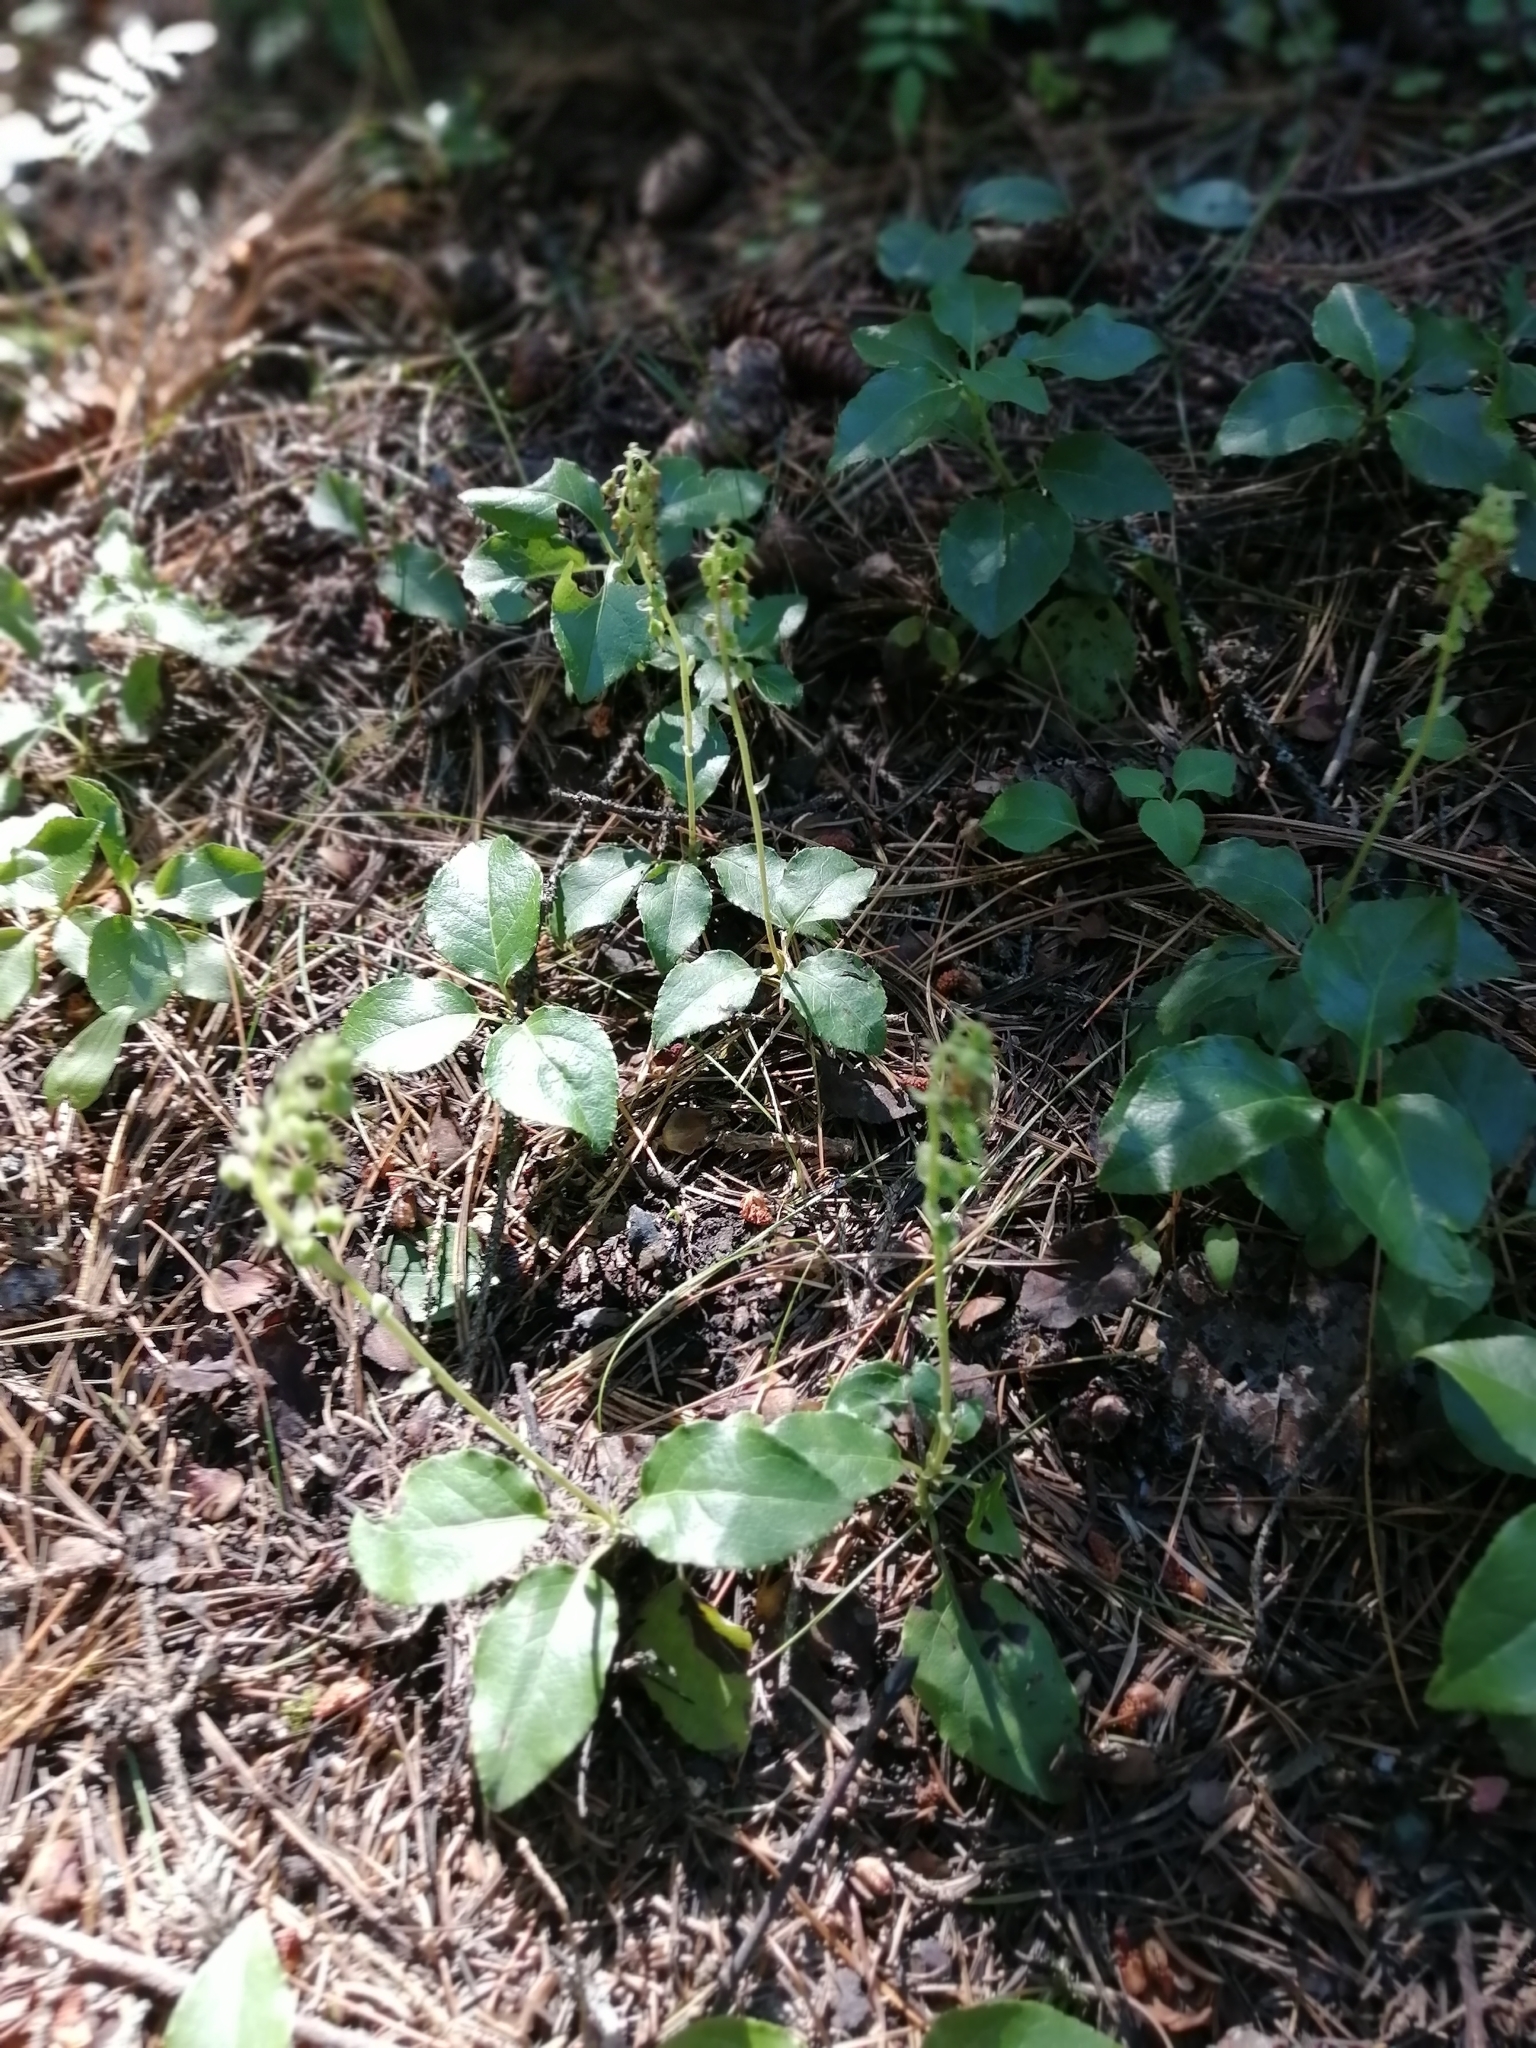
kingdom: Plantae
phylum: Tracheophyta
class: Magnoliopsida
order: Ericales
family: Ericaceae
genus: Orthilia
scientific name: Orthilia secunda
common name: One-sided orthilia
